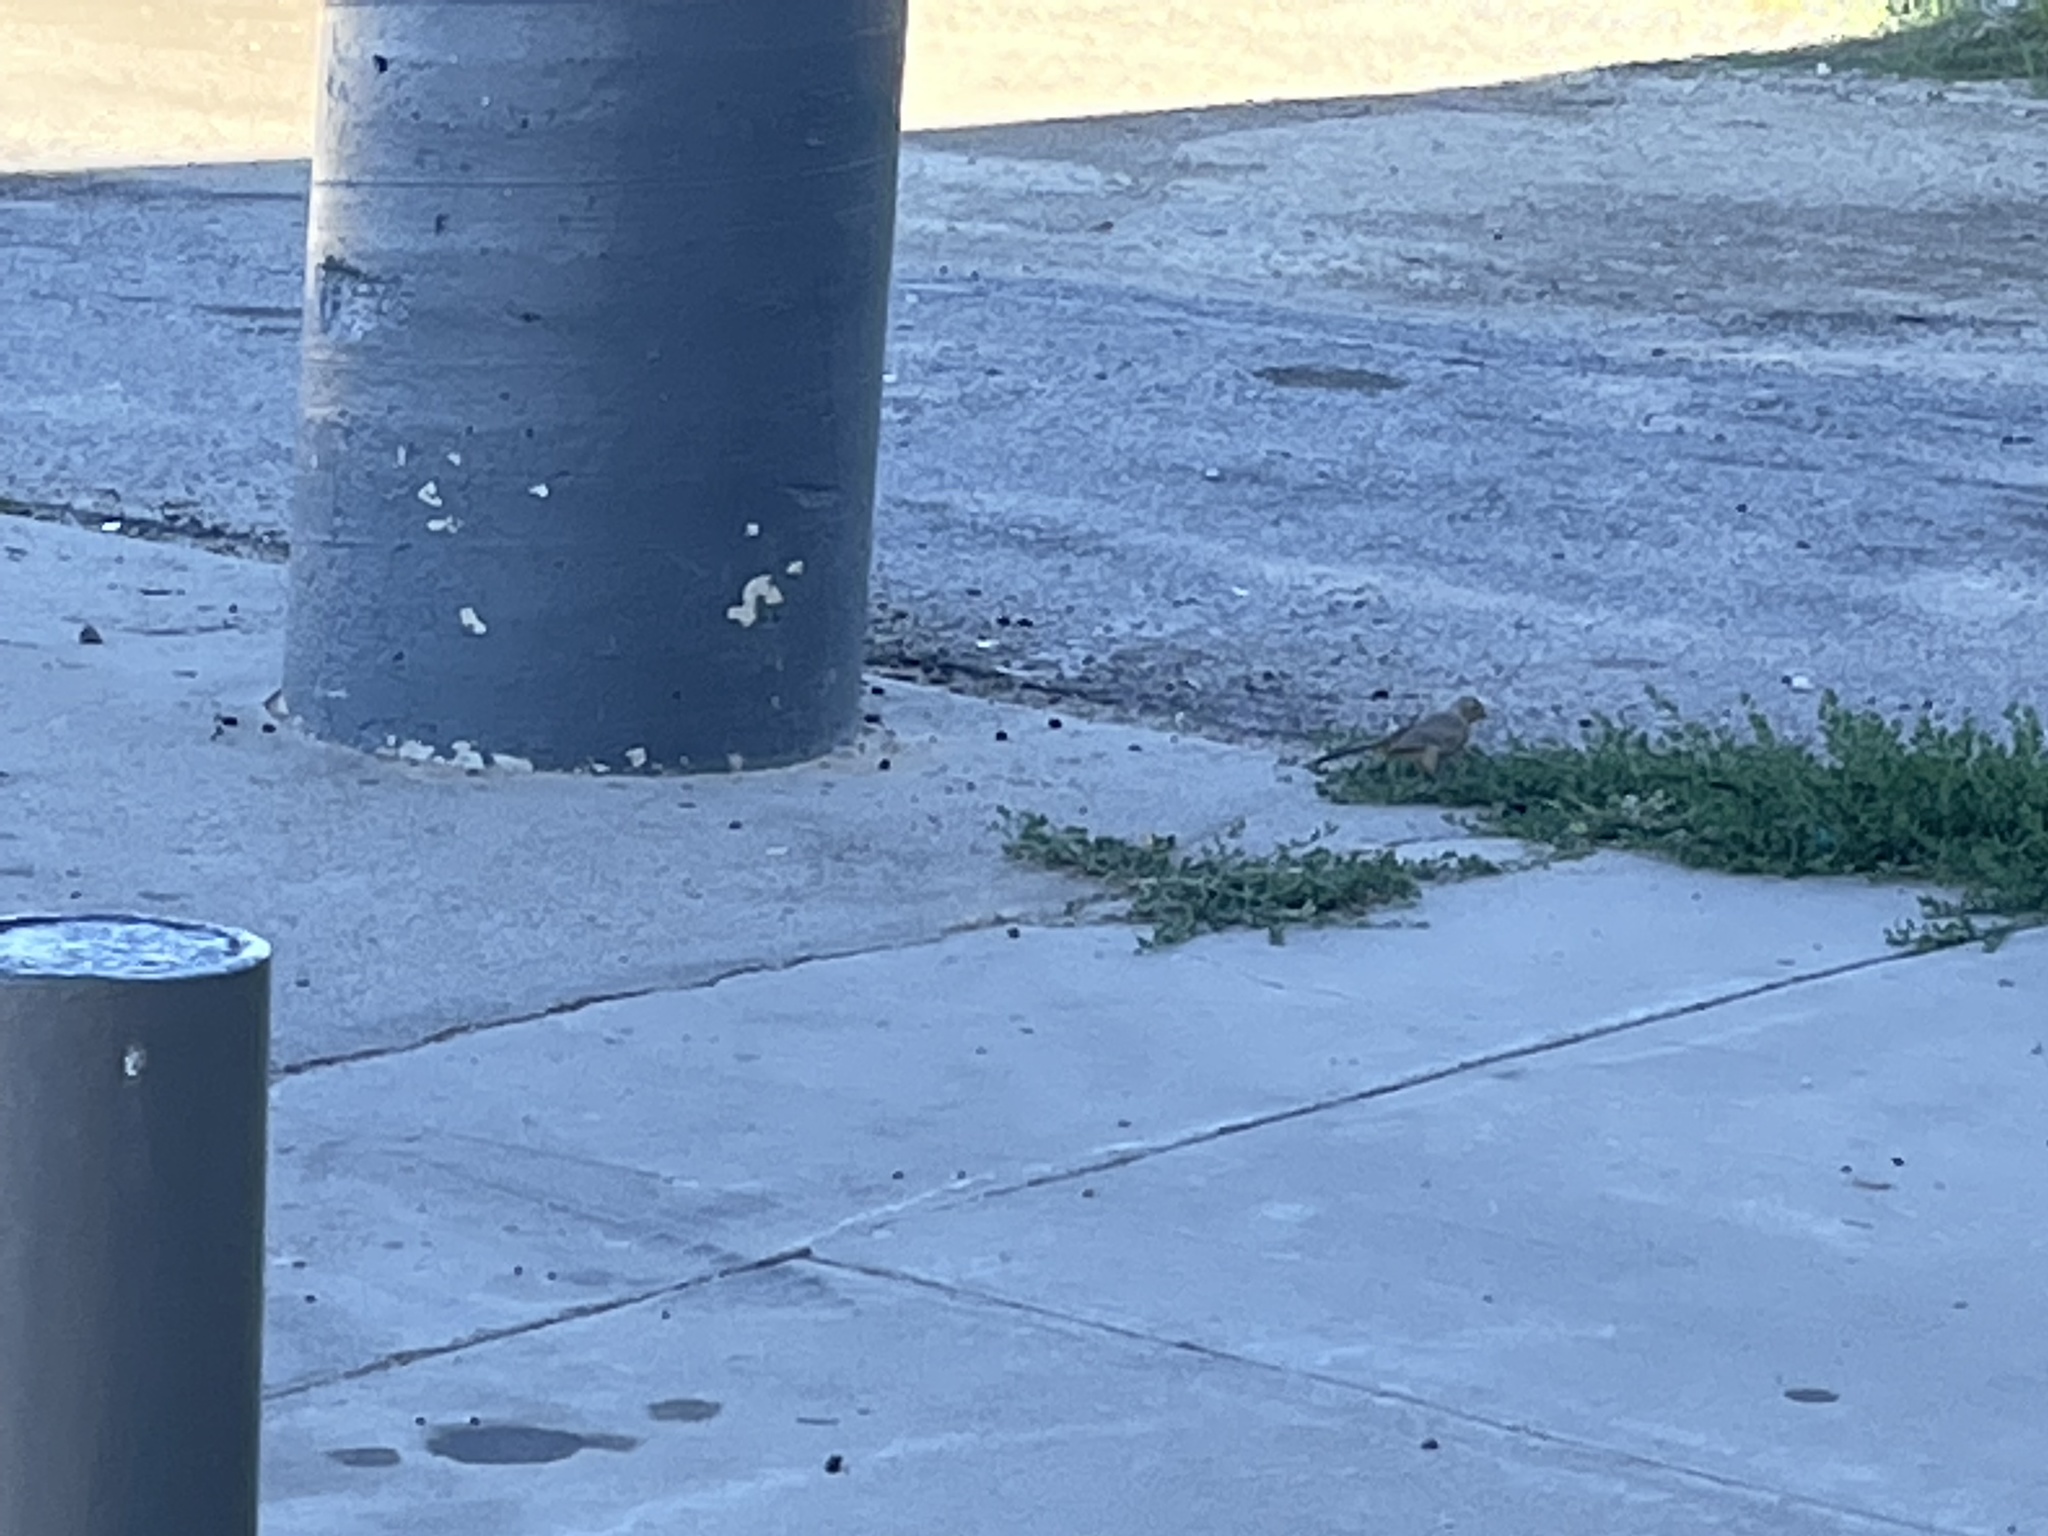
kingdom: Animalia
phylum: Chordata
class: Aves
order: Passeriformes
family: Passerellidae
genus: Melozone
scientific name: Melozone fusca
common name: Canyon towhee
